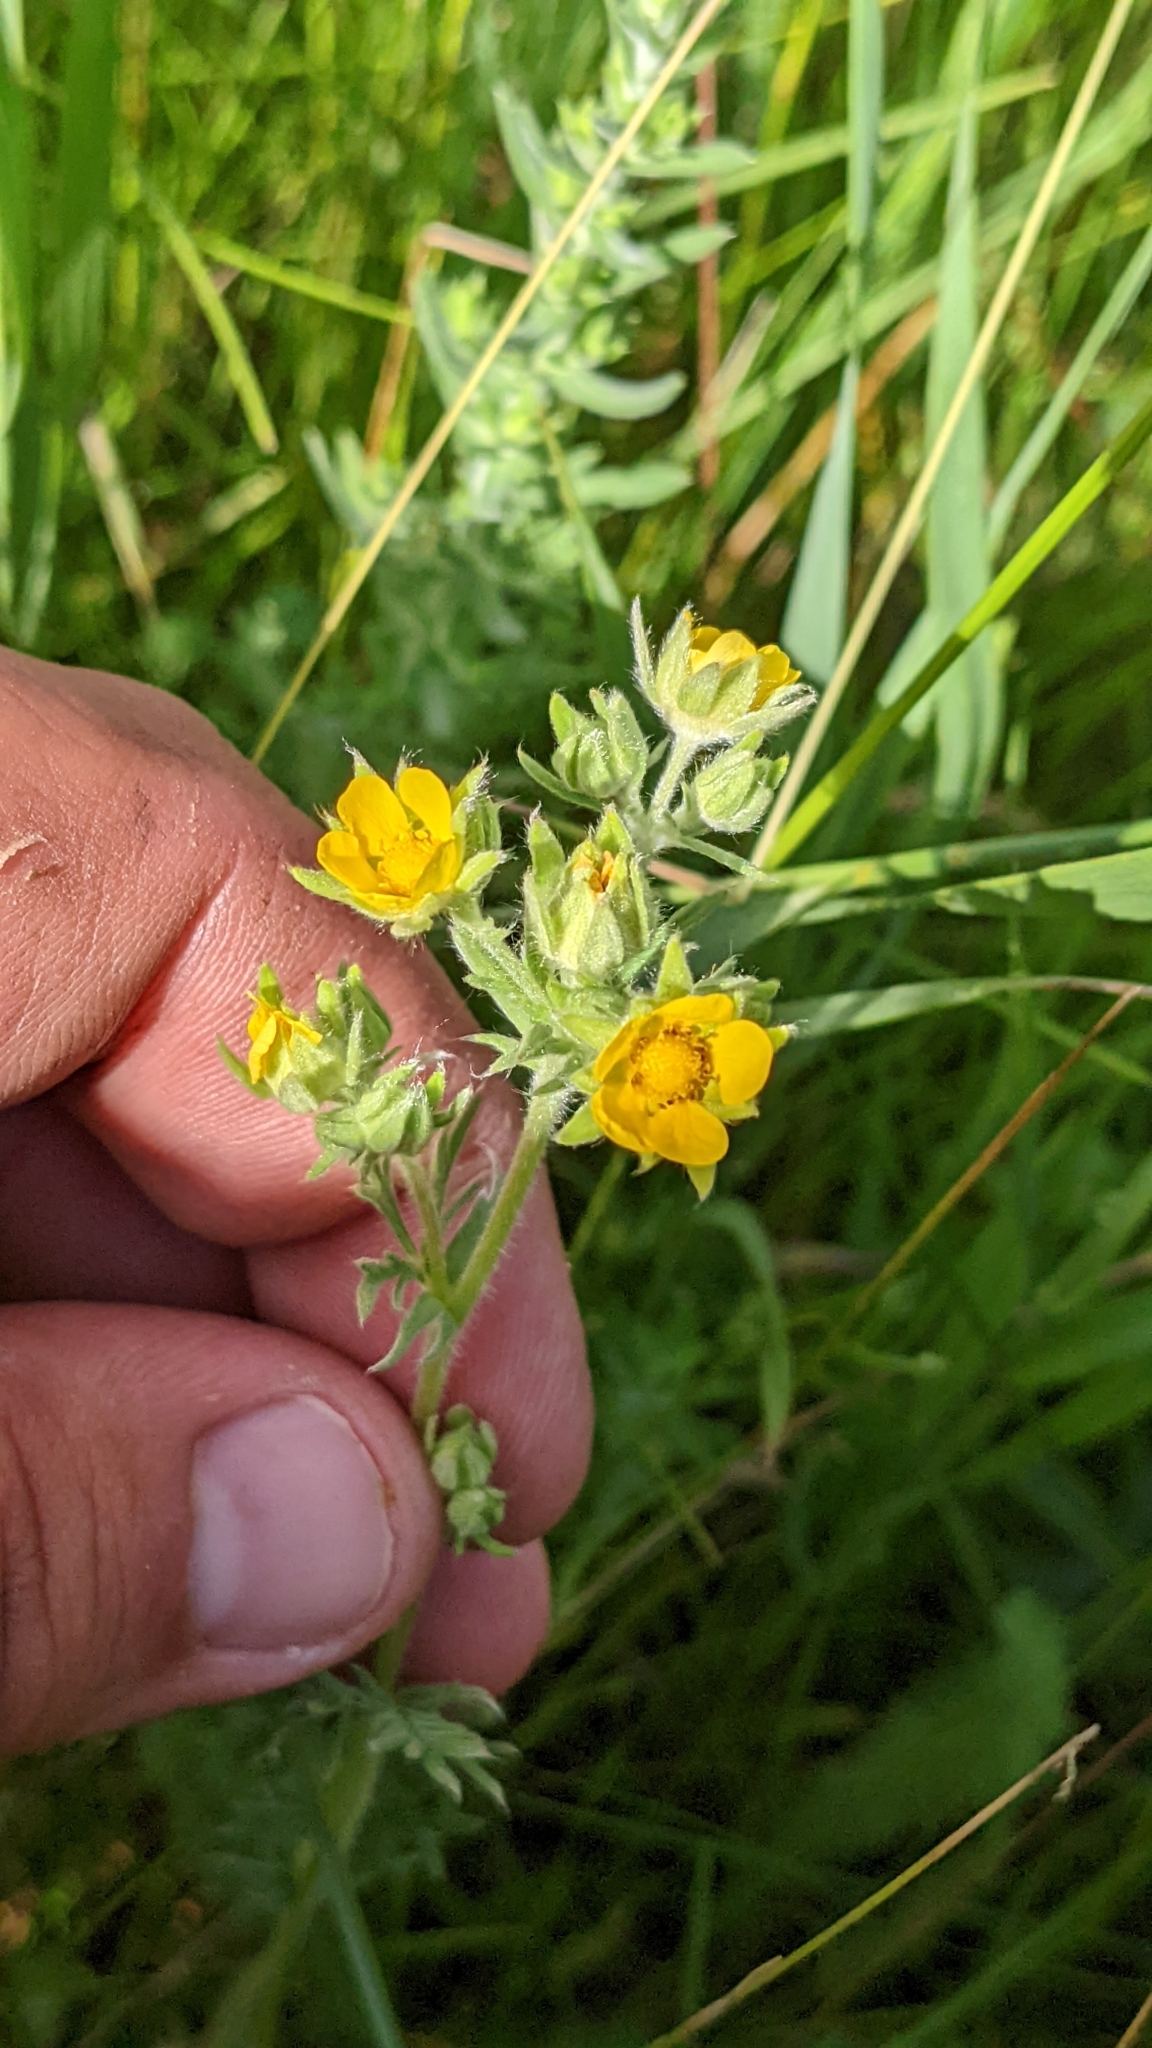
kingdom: Plantae
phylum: Tracheophyta
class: Magnoliopsida
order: Rosales
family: Rosaceae
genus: Potentilla
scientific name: Potentilla pensylvanica
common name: Pennsylvania cinquefoil
